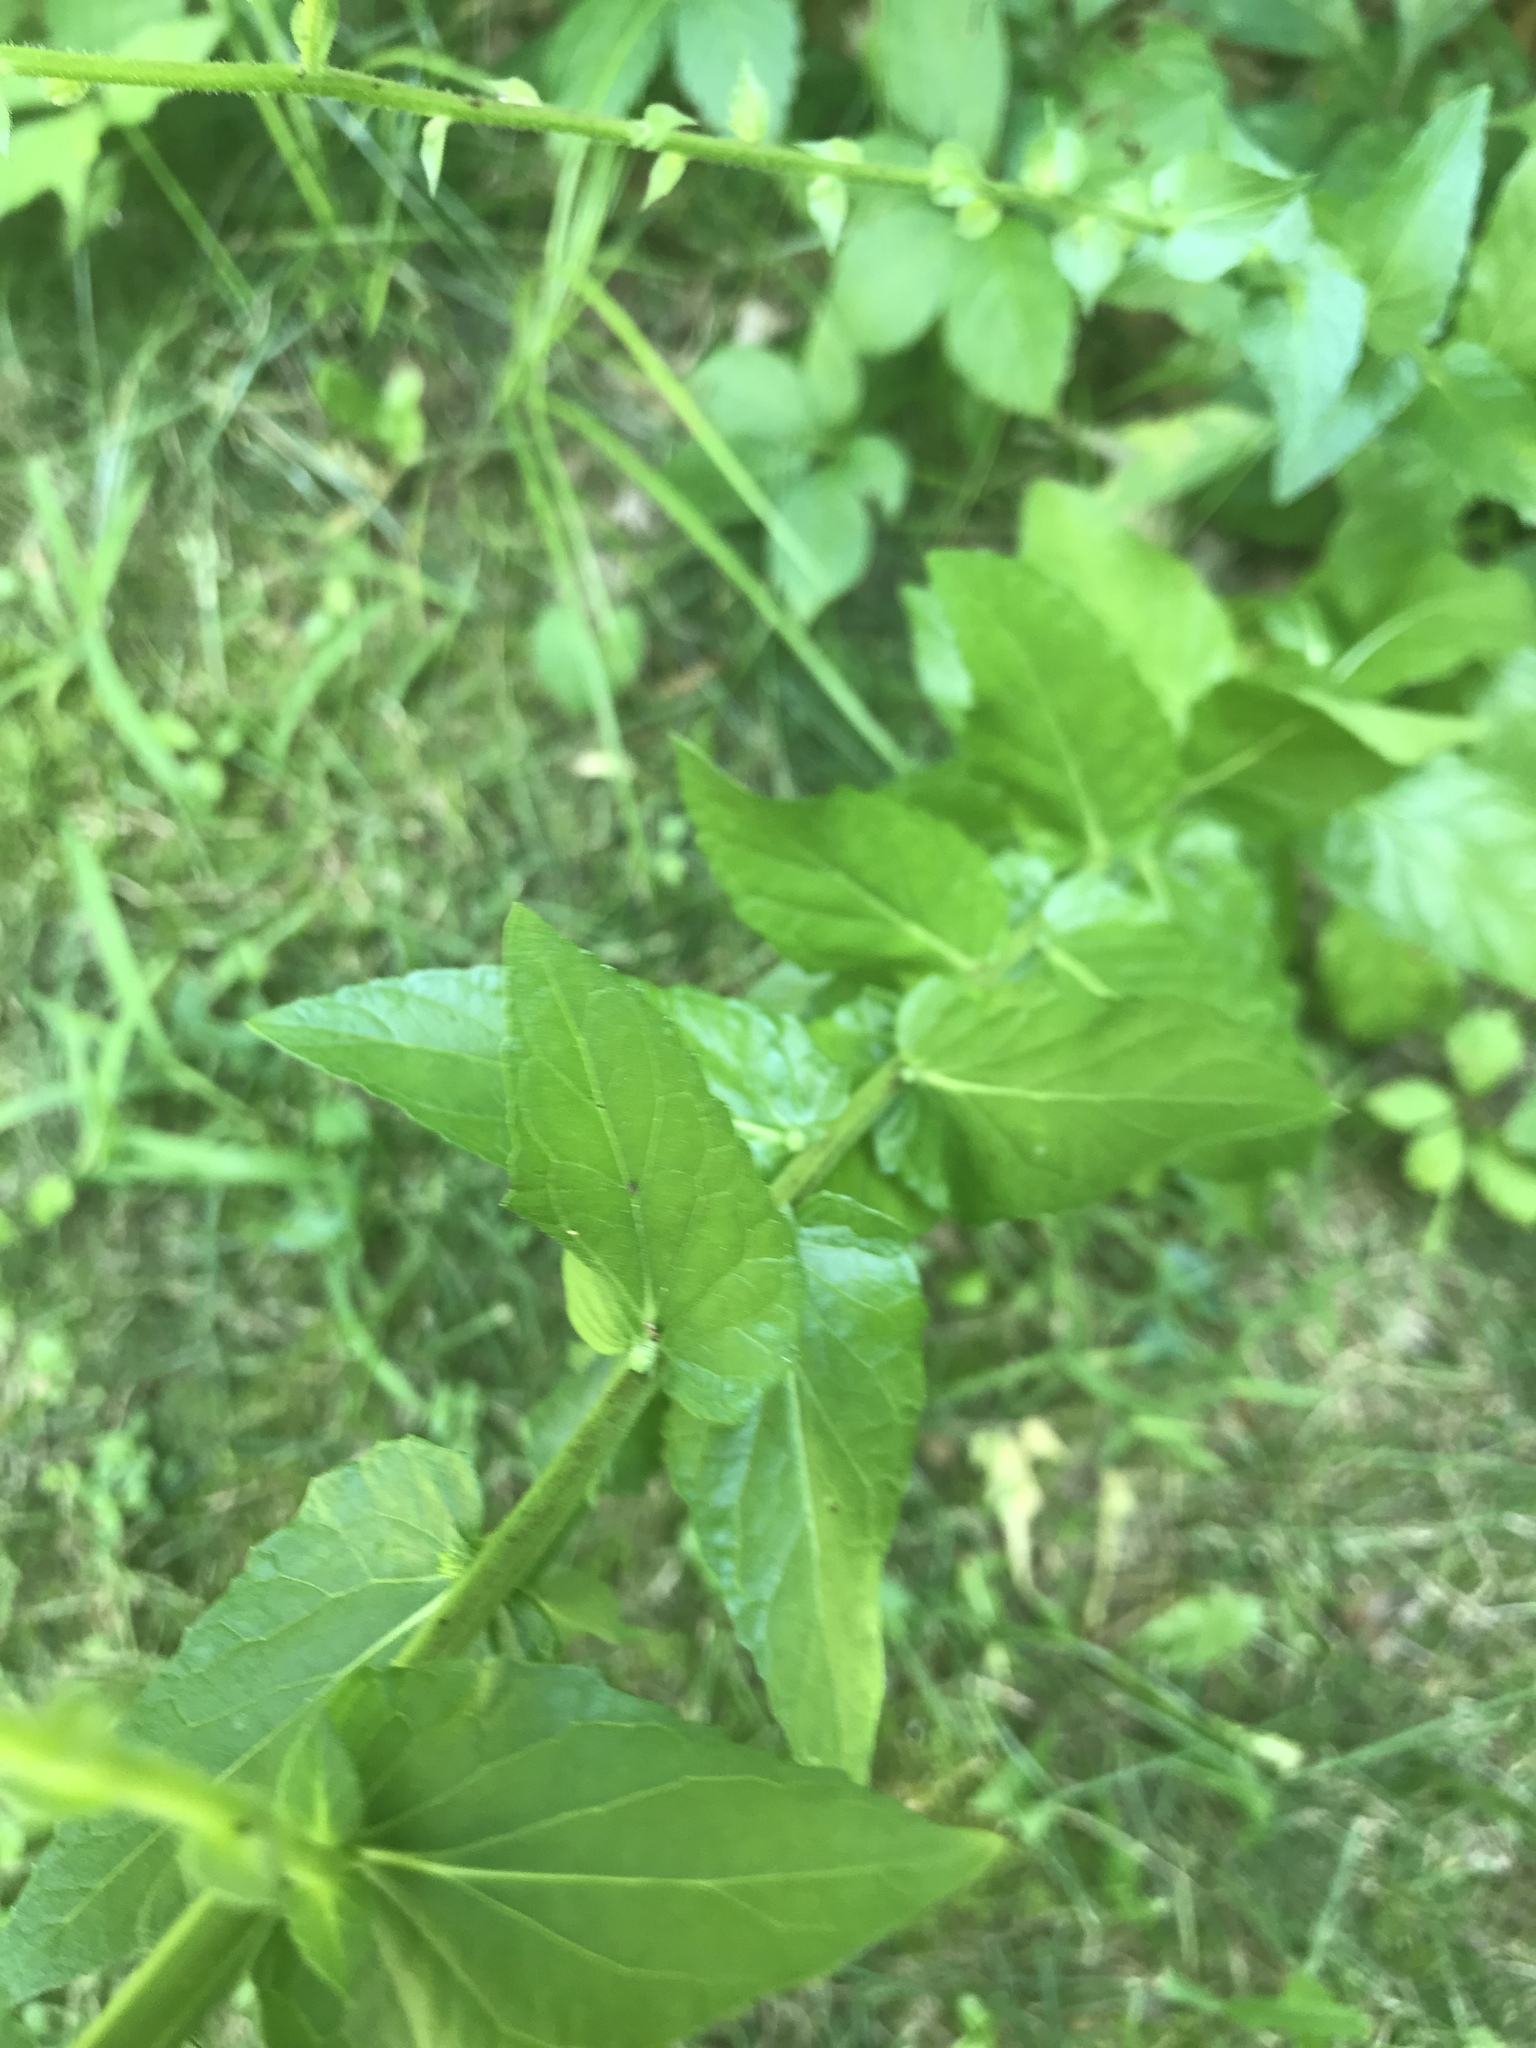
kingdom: Plantae
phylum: Tracheophyta
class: Magnoliopsida
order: Lamiales
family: Scrophulariaceae
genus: Verbascum
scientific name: Verbascum blattaria
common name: Moth mullein
